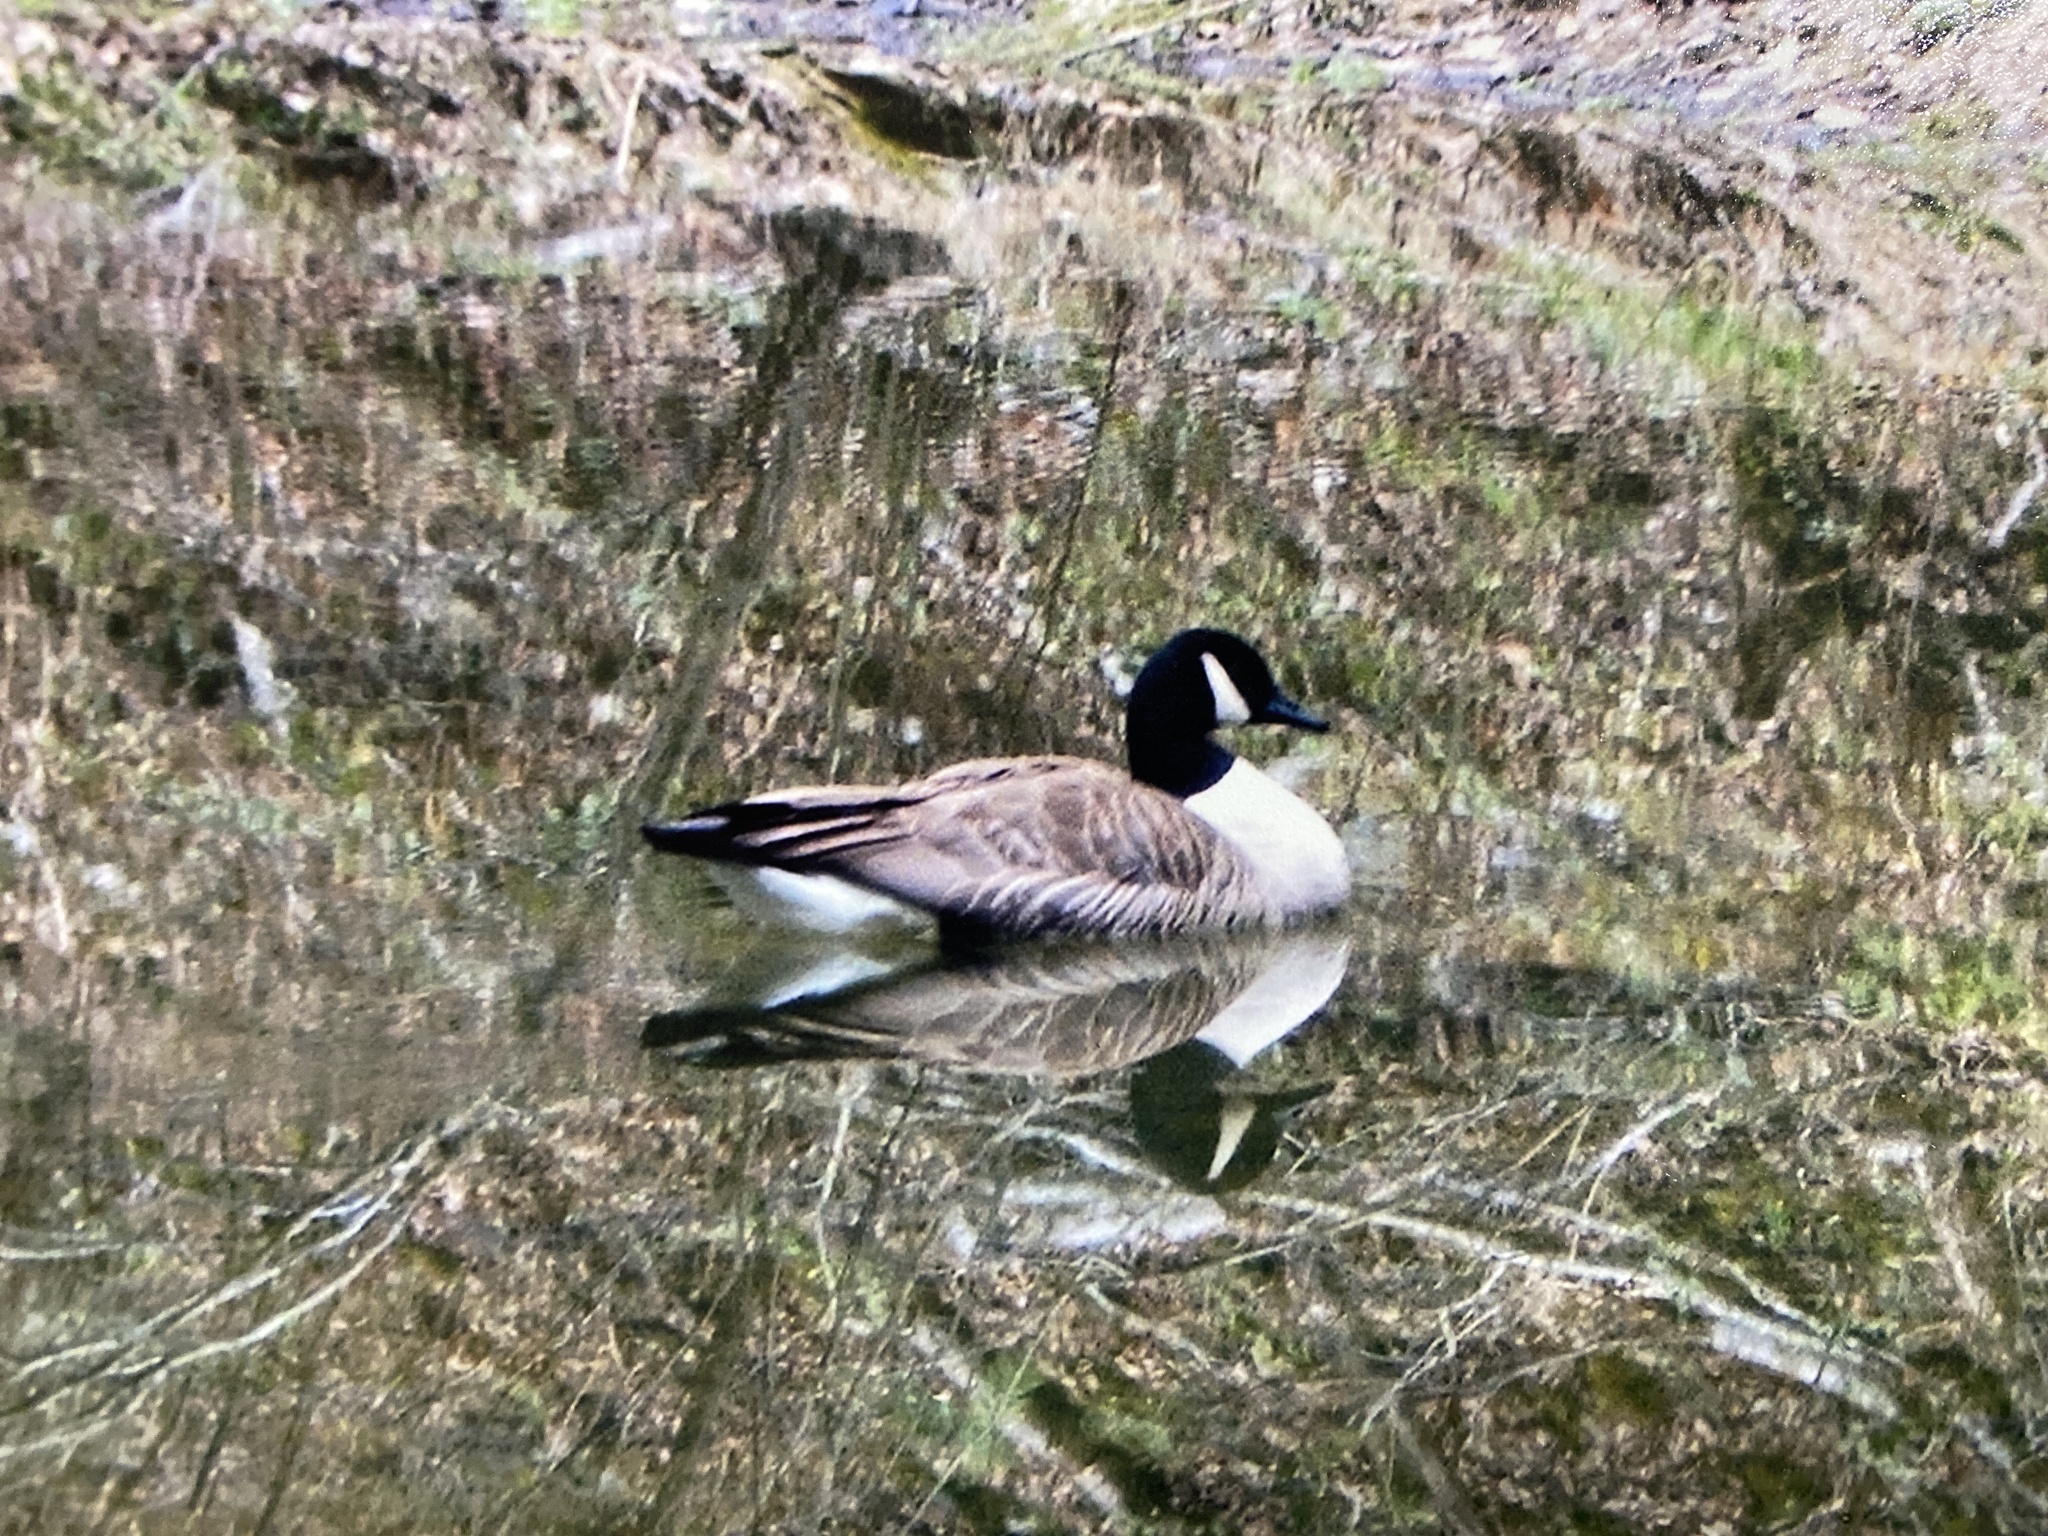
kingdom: Animalia
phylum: Chordata
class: Aves
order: Anseriformes
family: Anatidae
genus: Branta
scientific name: Branta canadensis
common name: Canada goose
